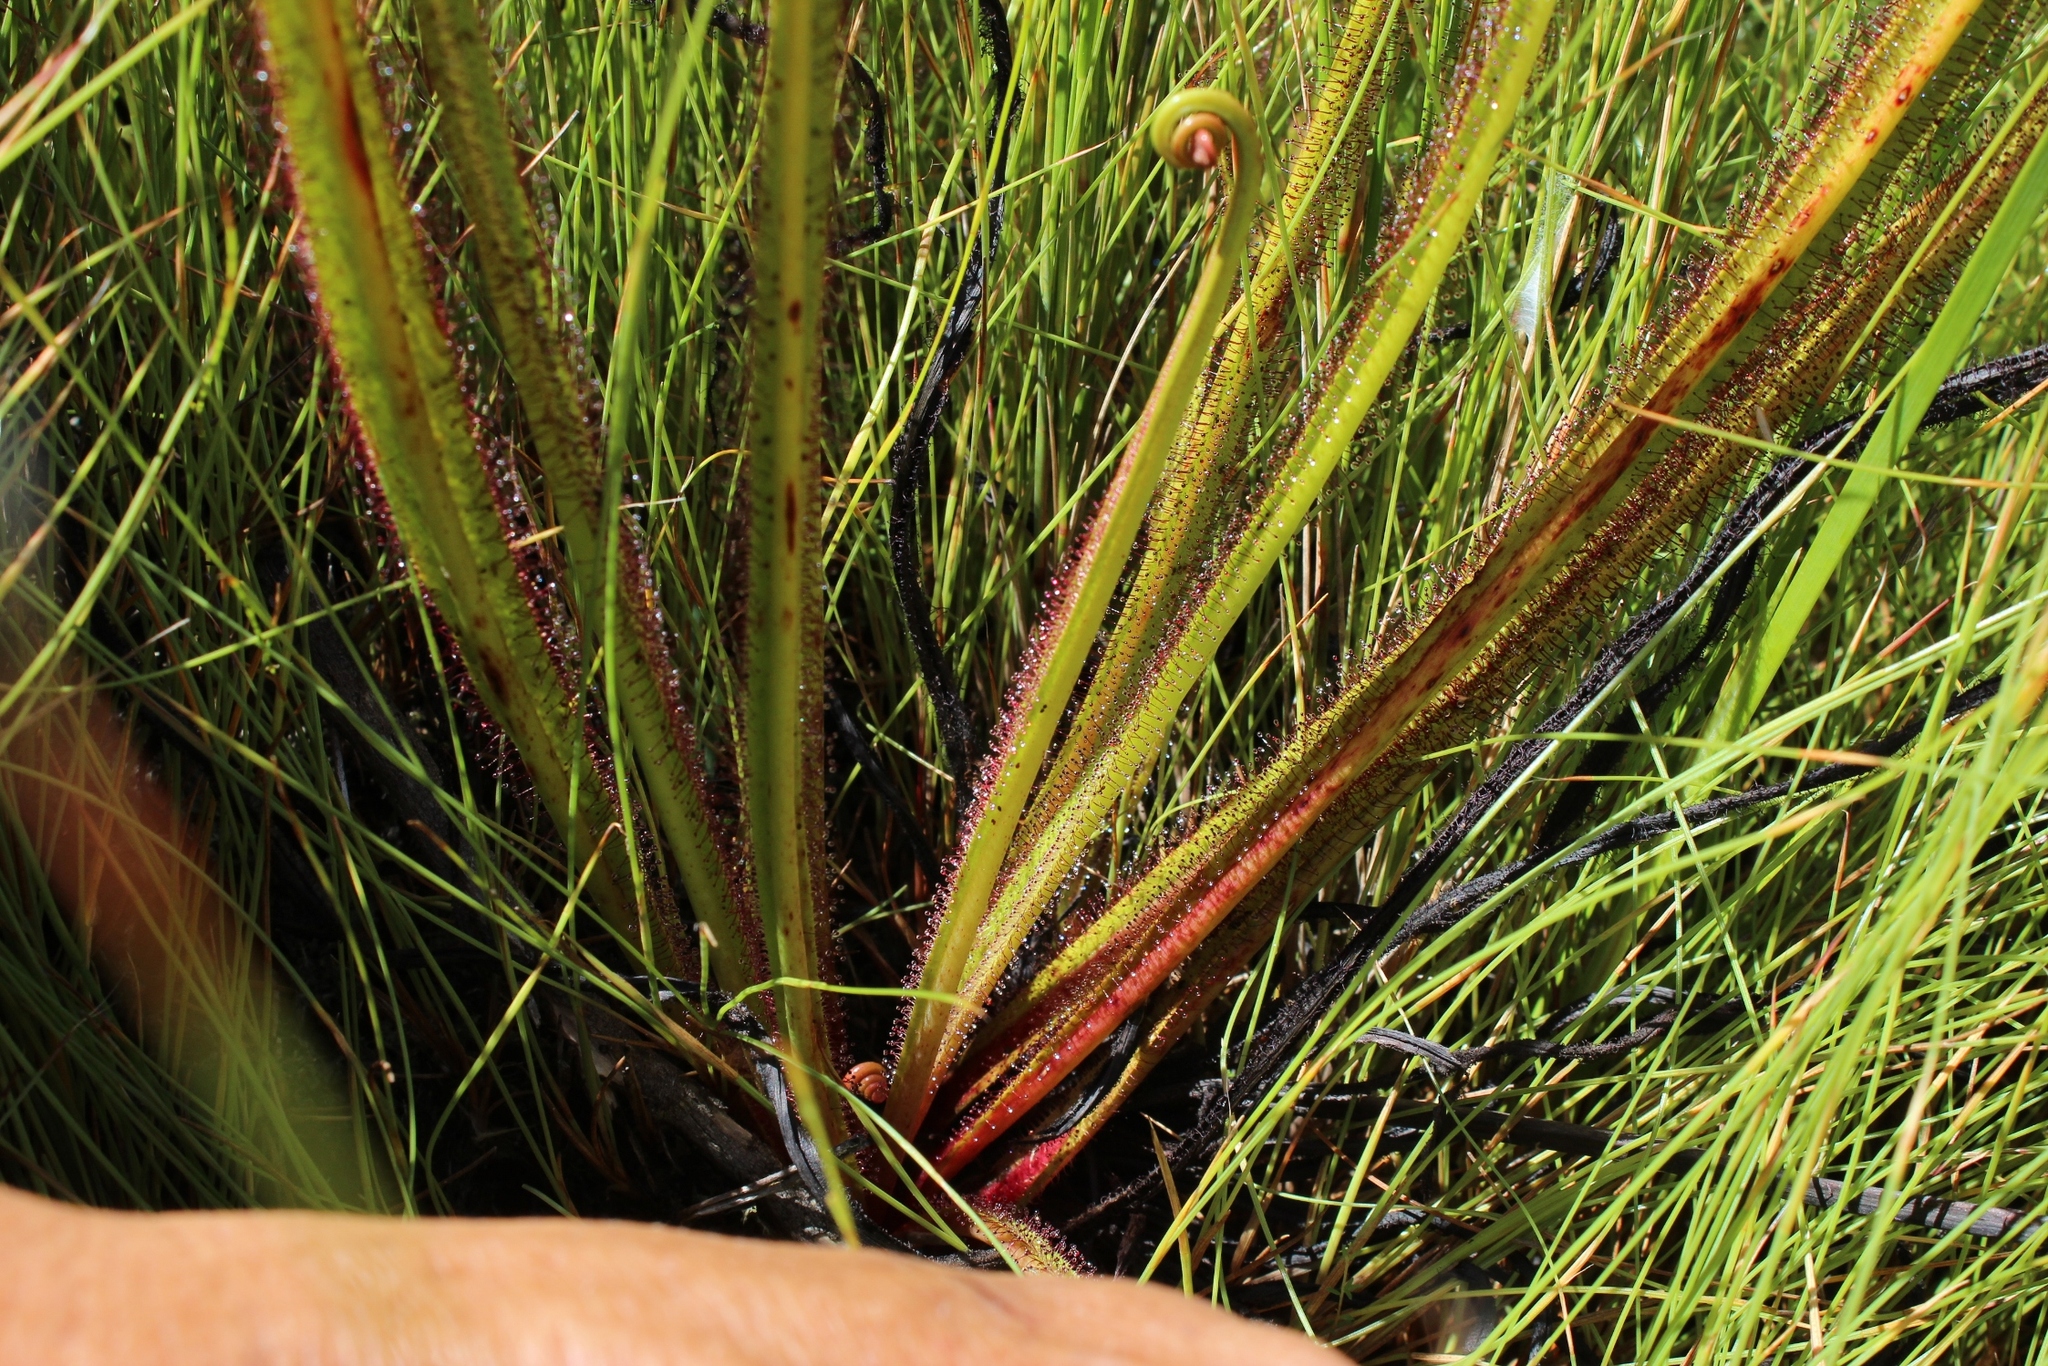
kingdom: Plantae
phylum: Tracheophyta
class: Magnoliopsida
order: Caryophyllales
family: Droseraceae
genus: Drosera
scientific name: Drosera regia
